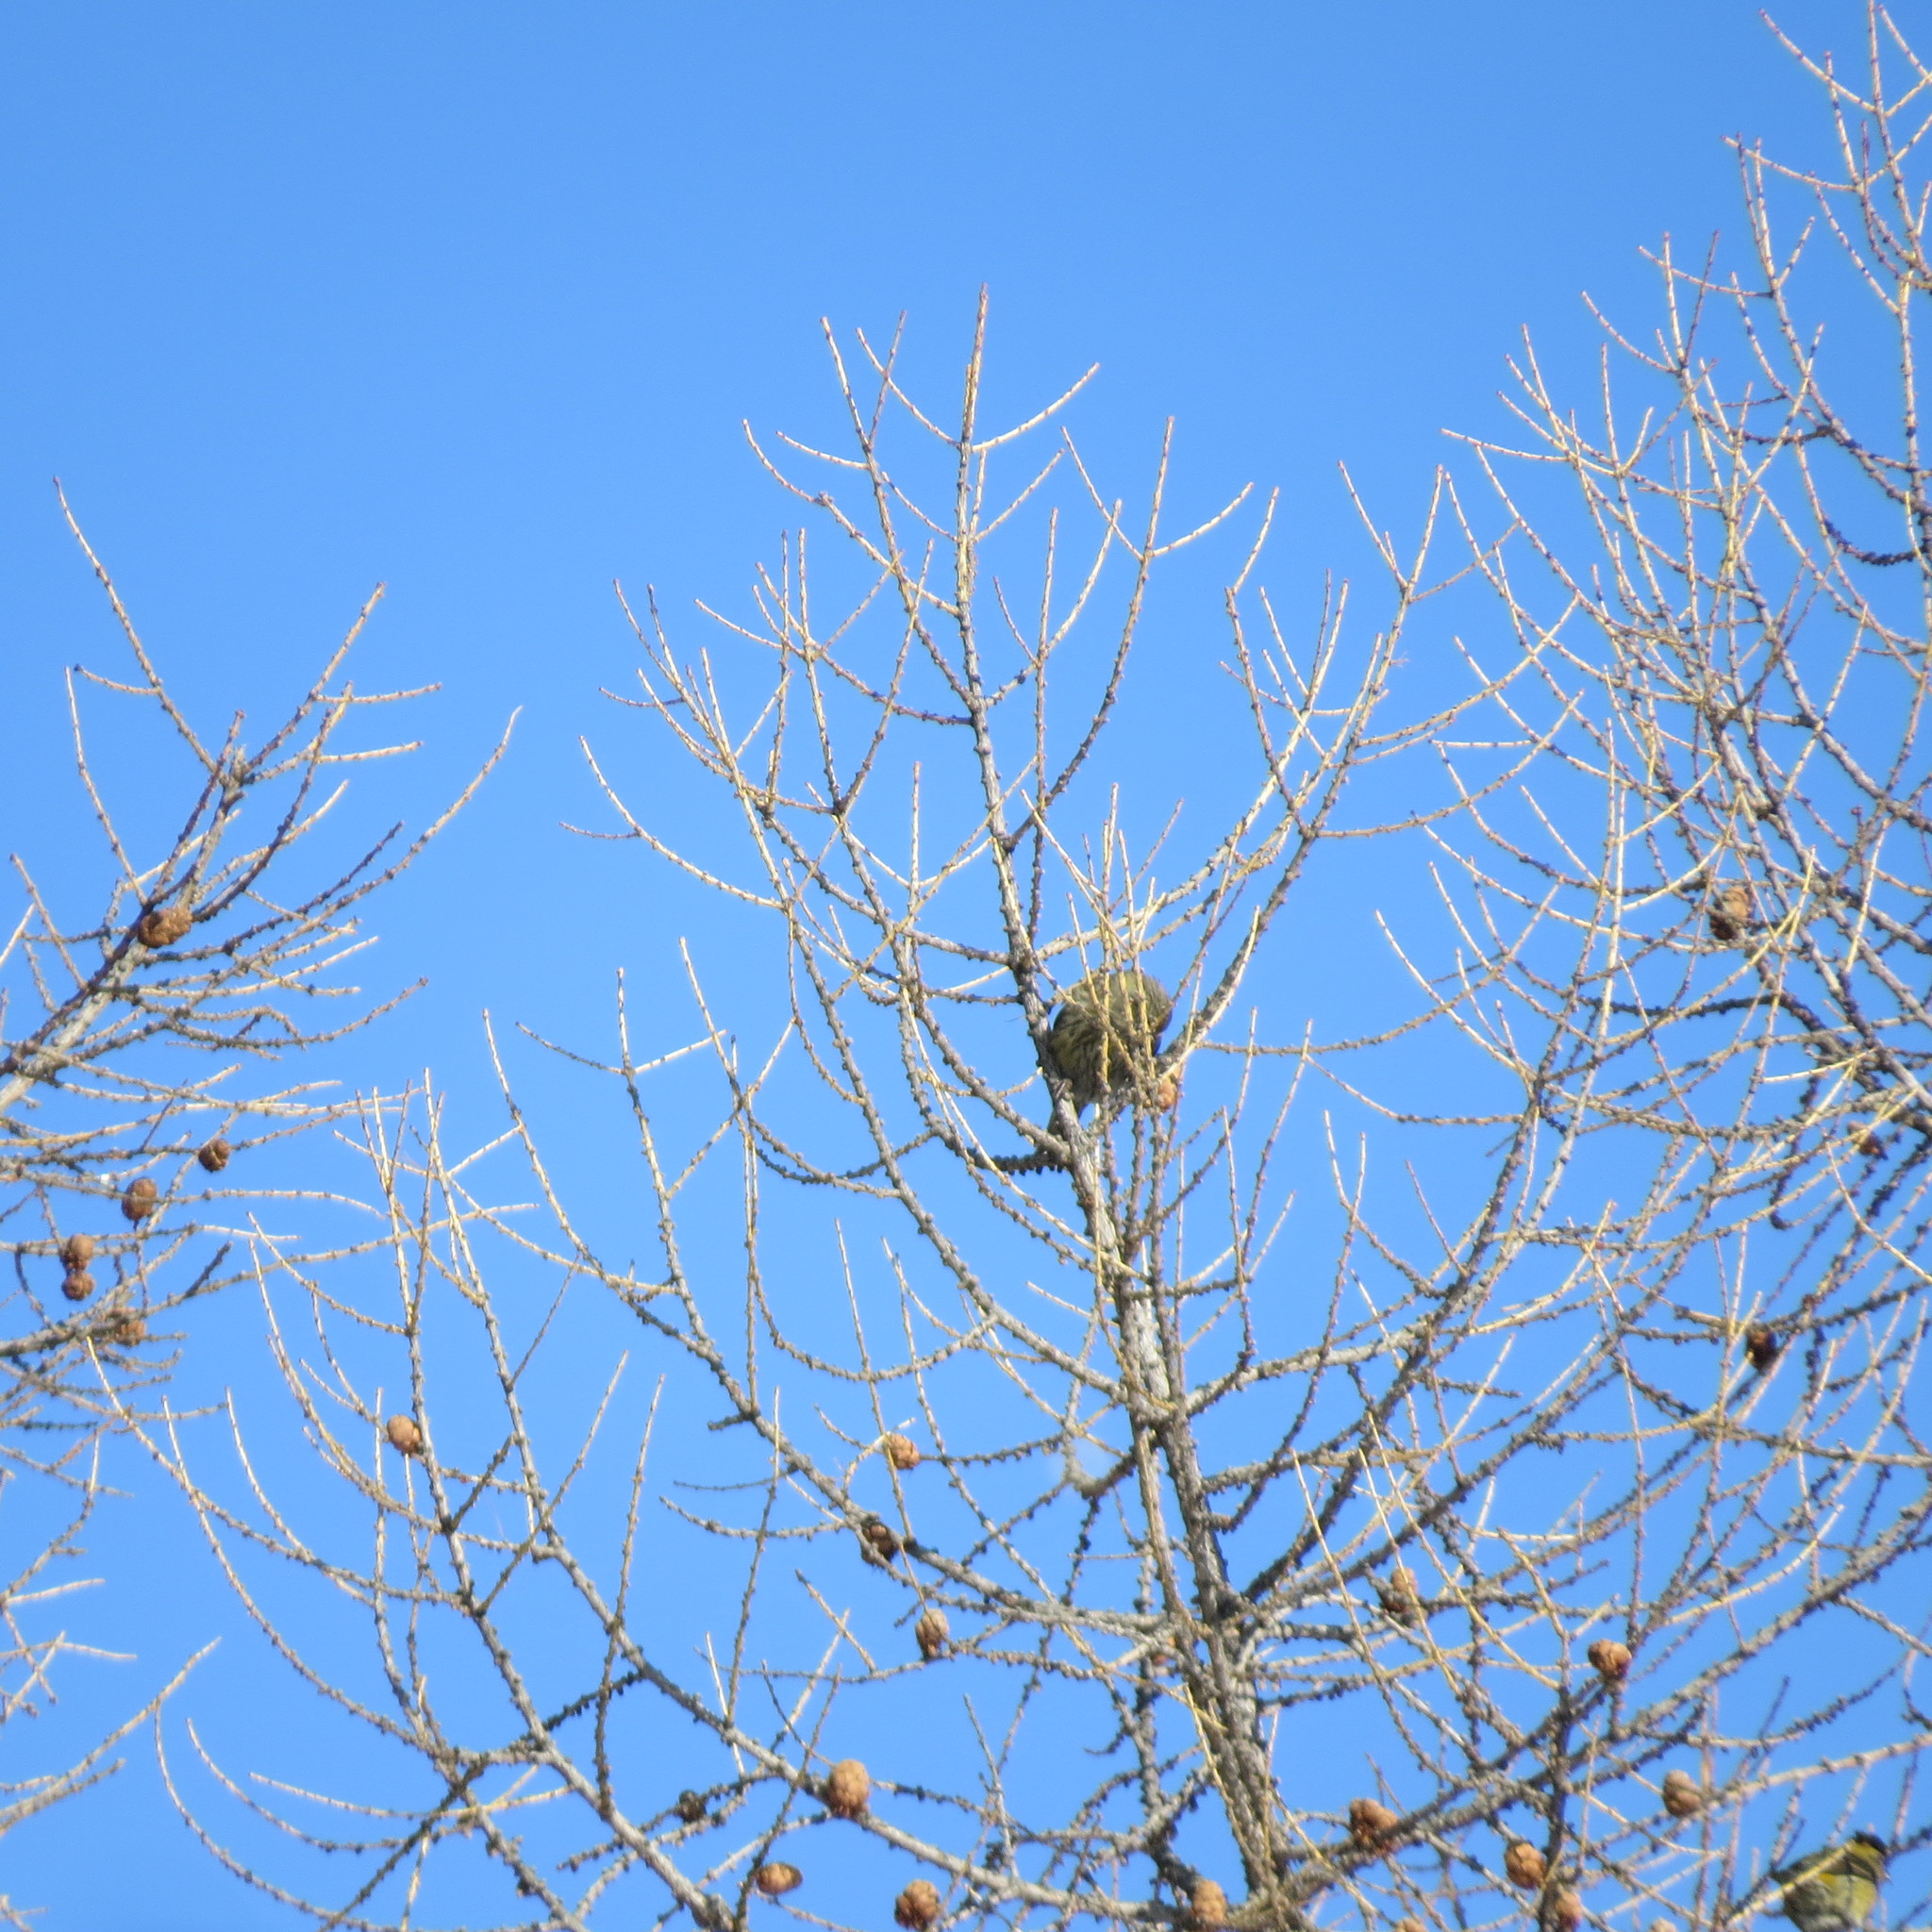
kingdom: Animalia
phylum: Chordata
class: Aves
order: Passeriformes
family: Fringillidae
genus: Loxia
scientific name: Loxia curvirostra
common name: Red crossbill
